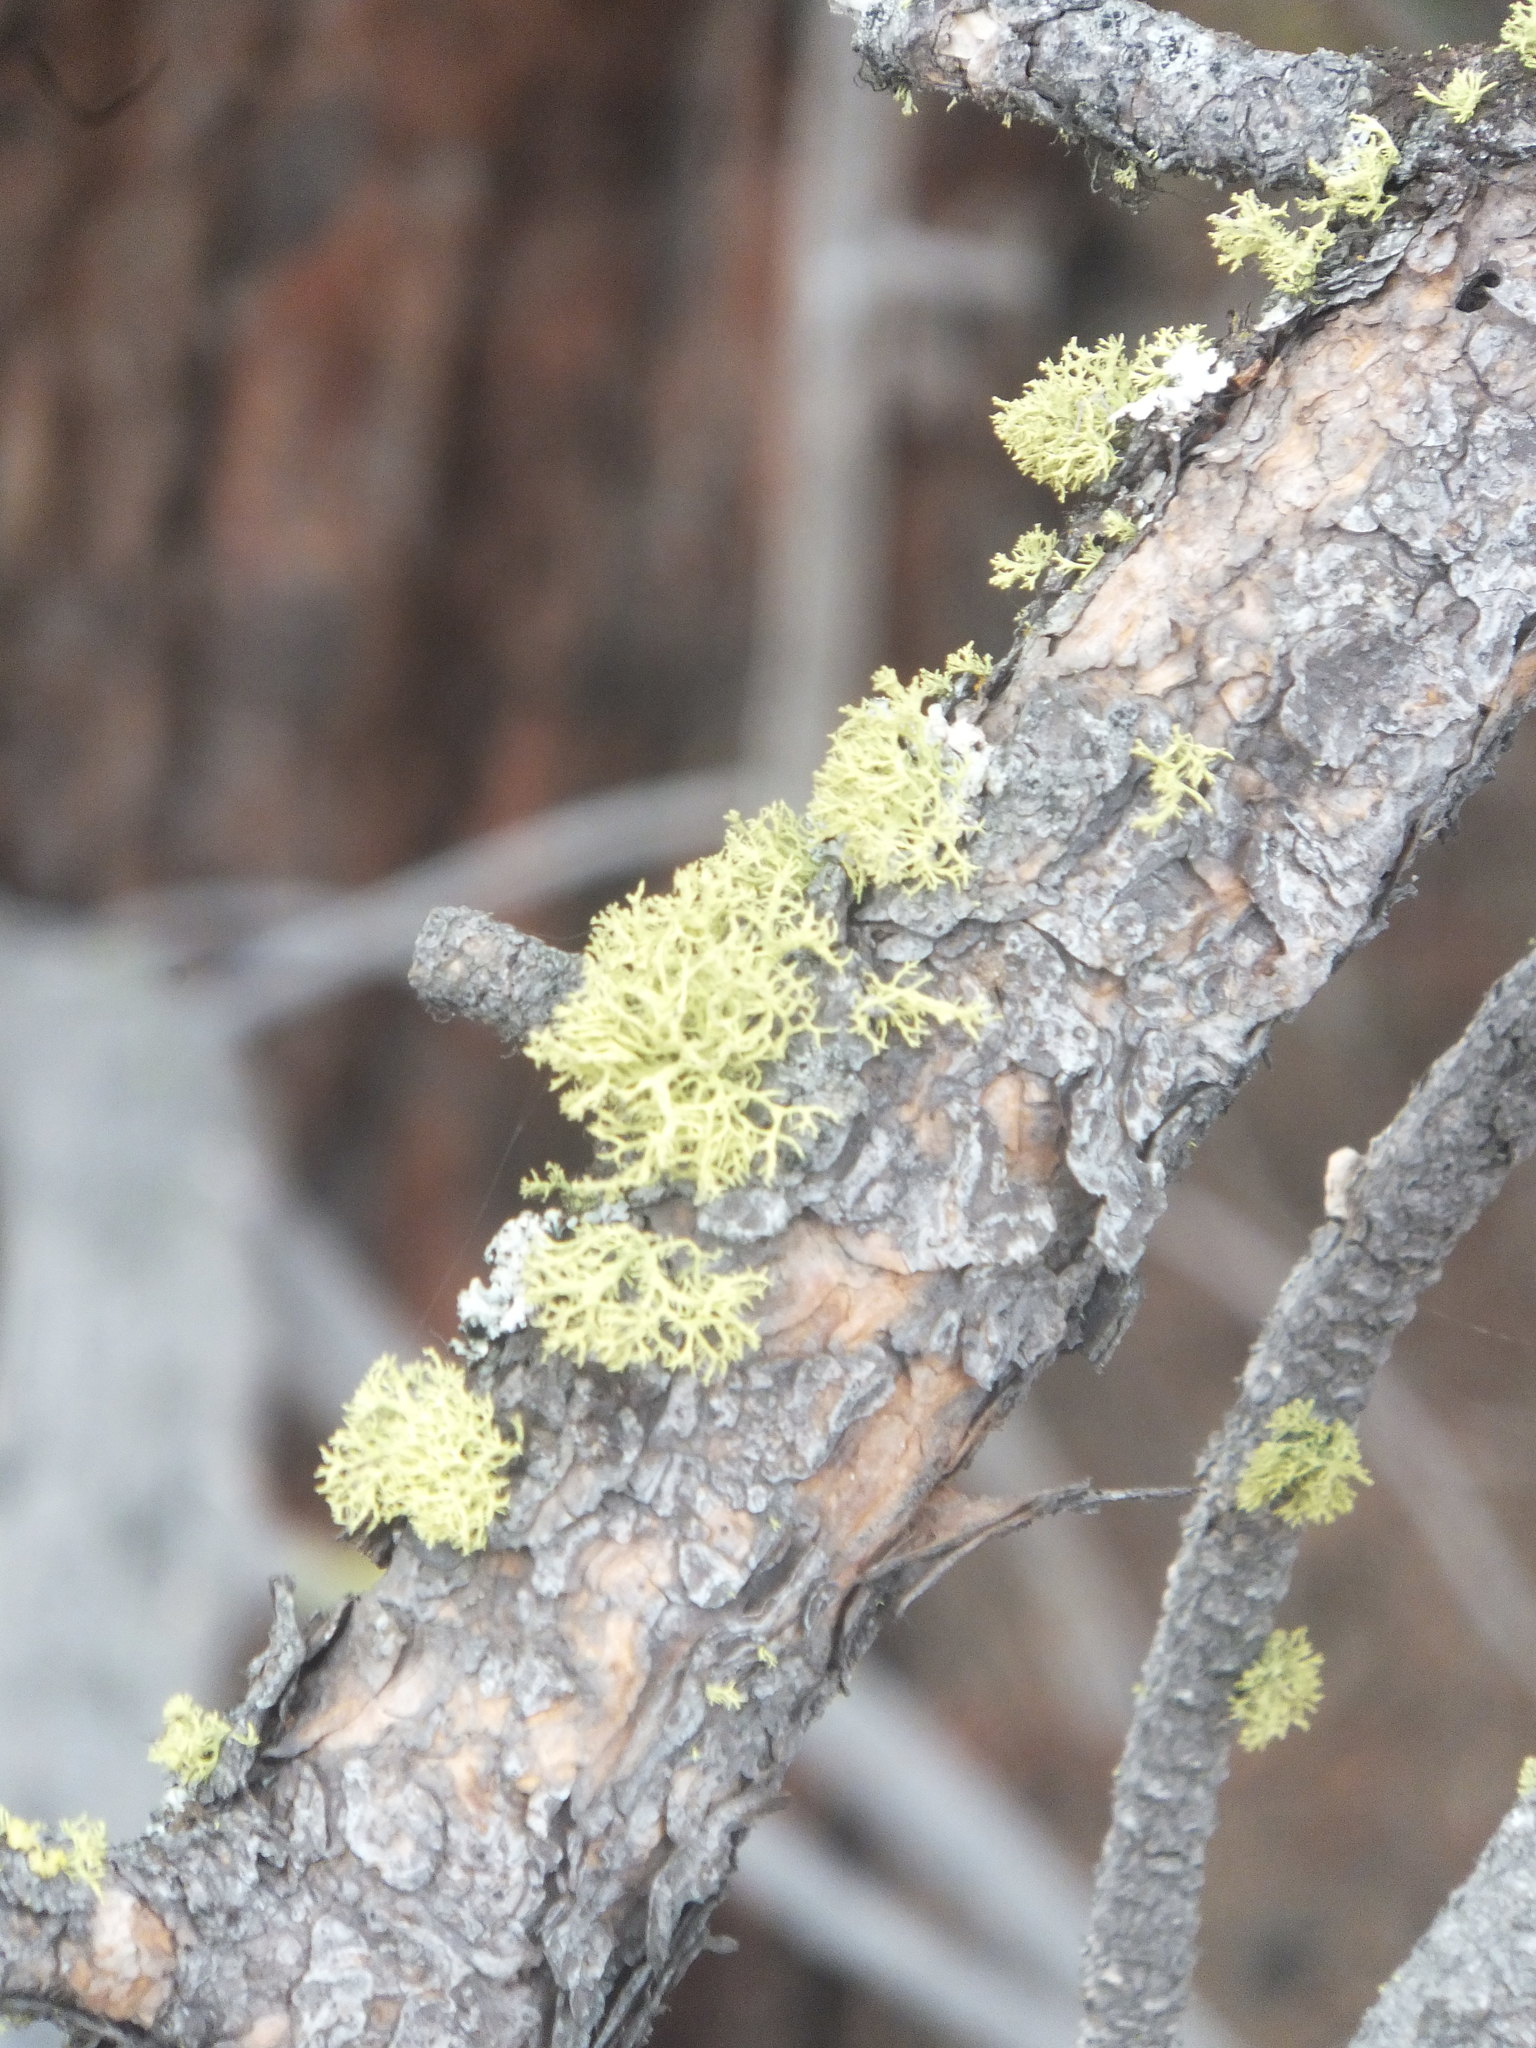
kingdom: Fungi
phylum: Ascomycota
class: Lecanoromycetes
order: Lecanorales
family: Parmeliaceae
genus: Letharia
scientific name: Letharia vulpina
